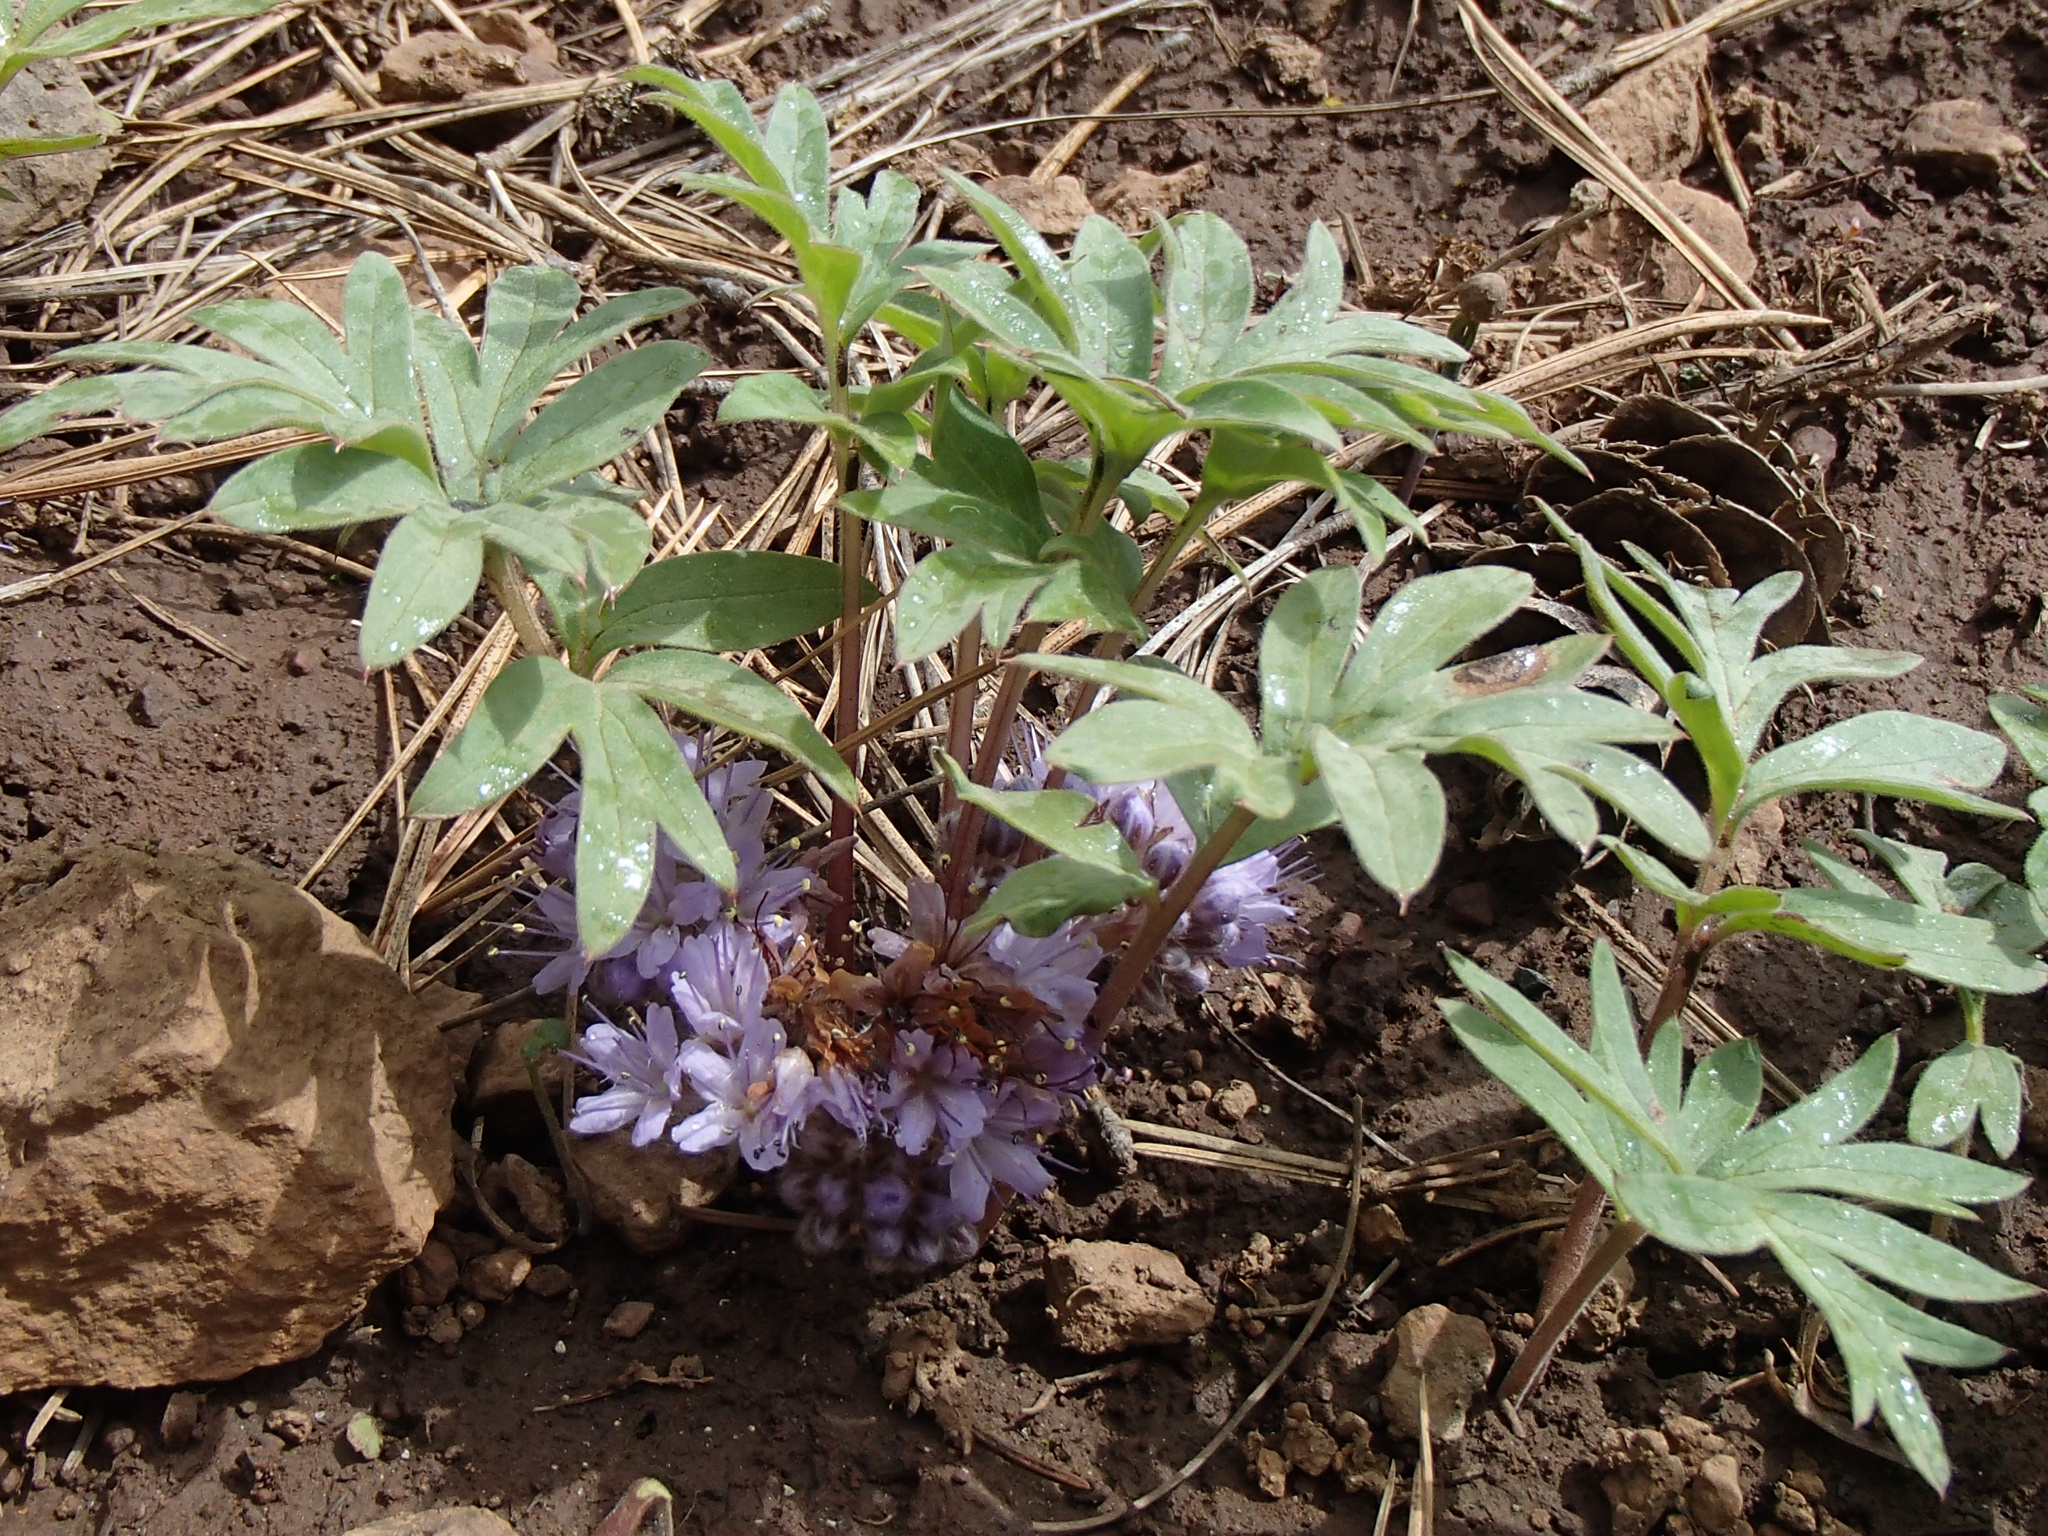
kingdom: Plantae
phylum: Tracheophyta
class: Magnoliopsida
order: Boraginales
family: Hydrophyllaceae
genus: Hydrophyllum
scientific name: Hydrophyllum alpestre
